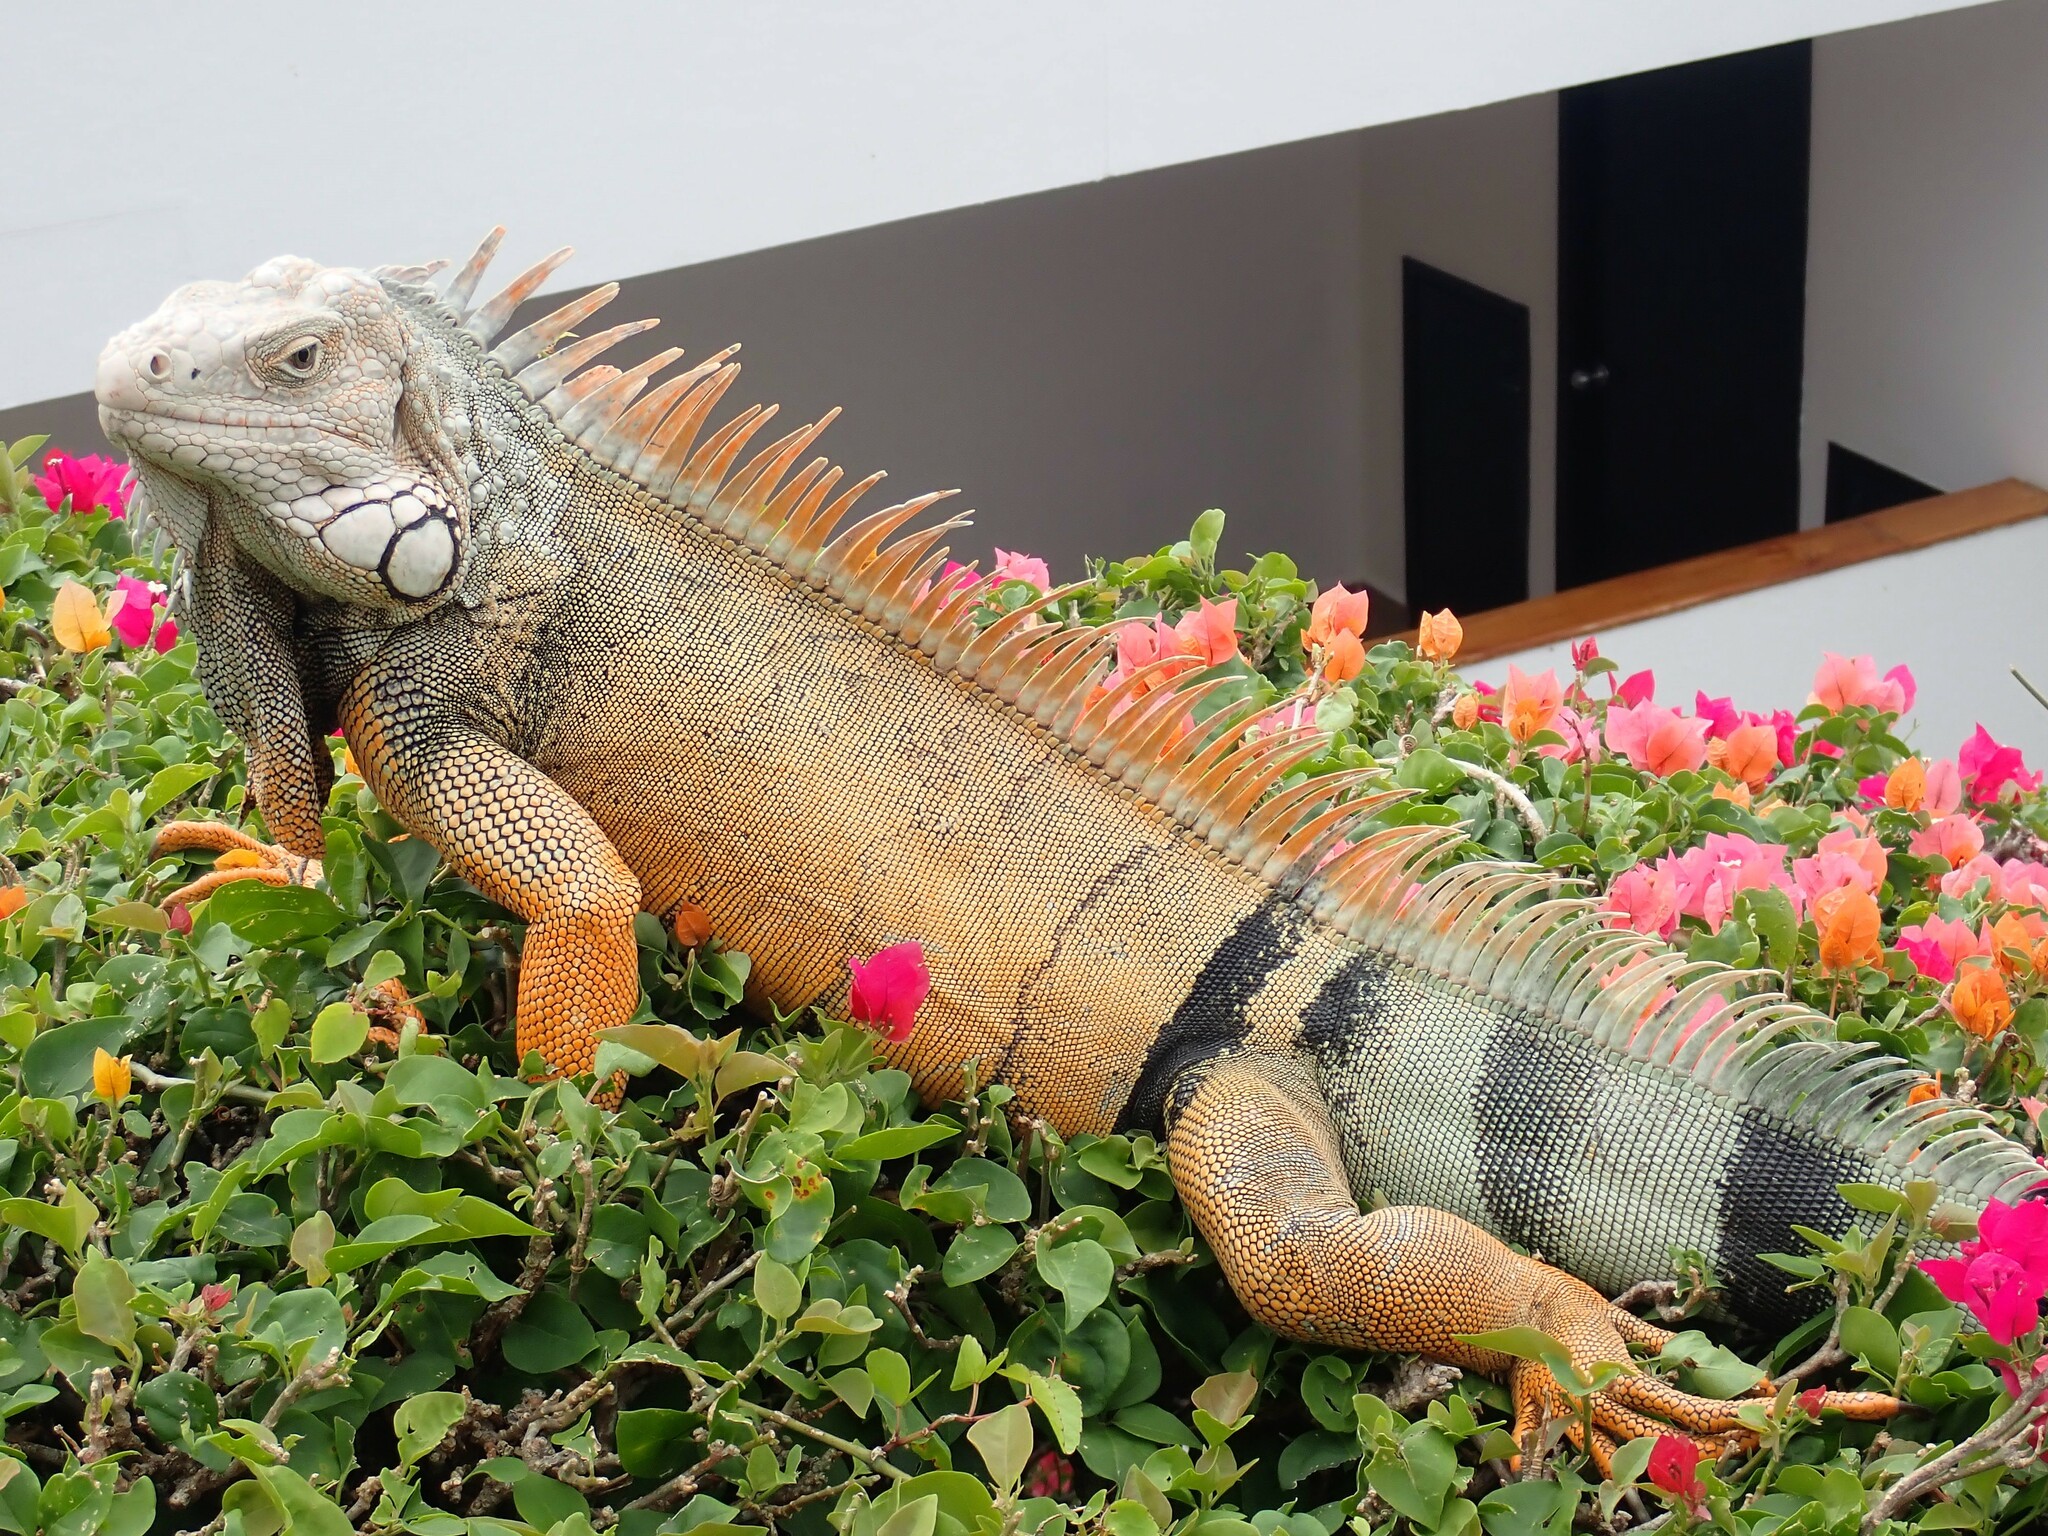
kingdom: Animalia
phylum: Chordata
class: Squamata
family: Iguanidae
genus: Iguana
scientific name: Iguana iguana
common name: Green iguana
